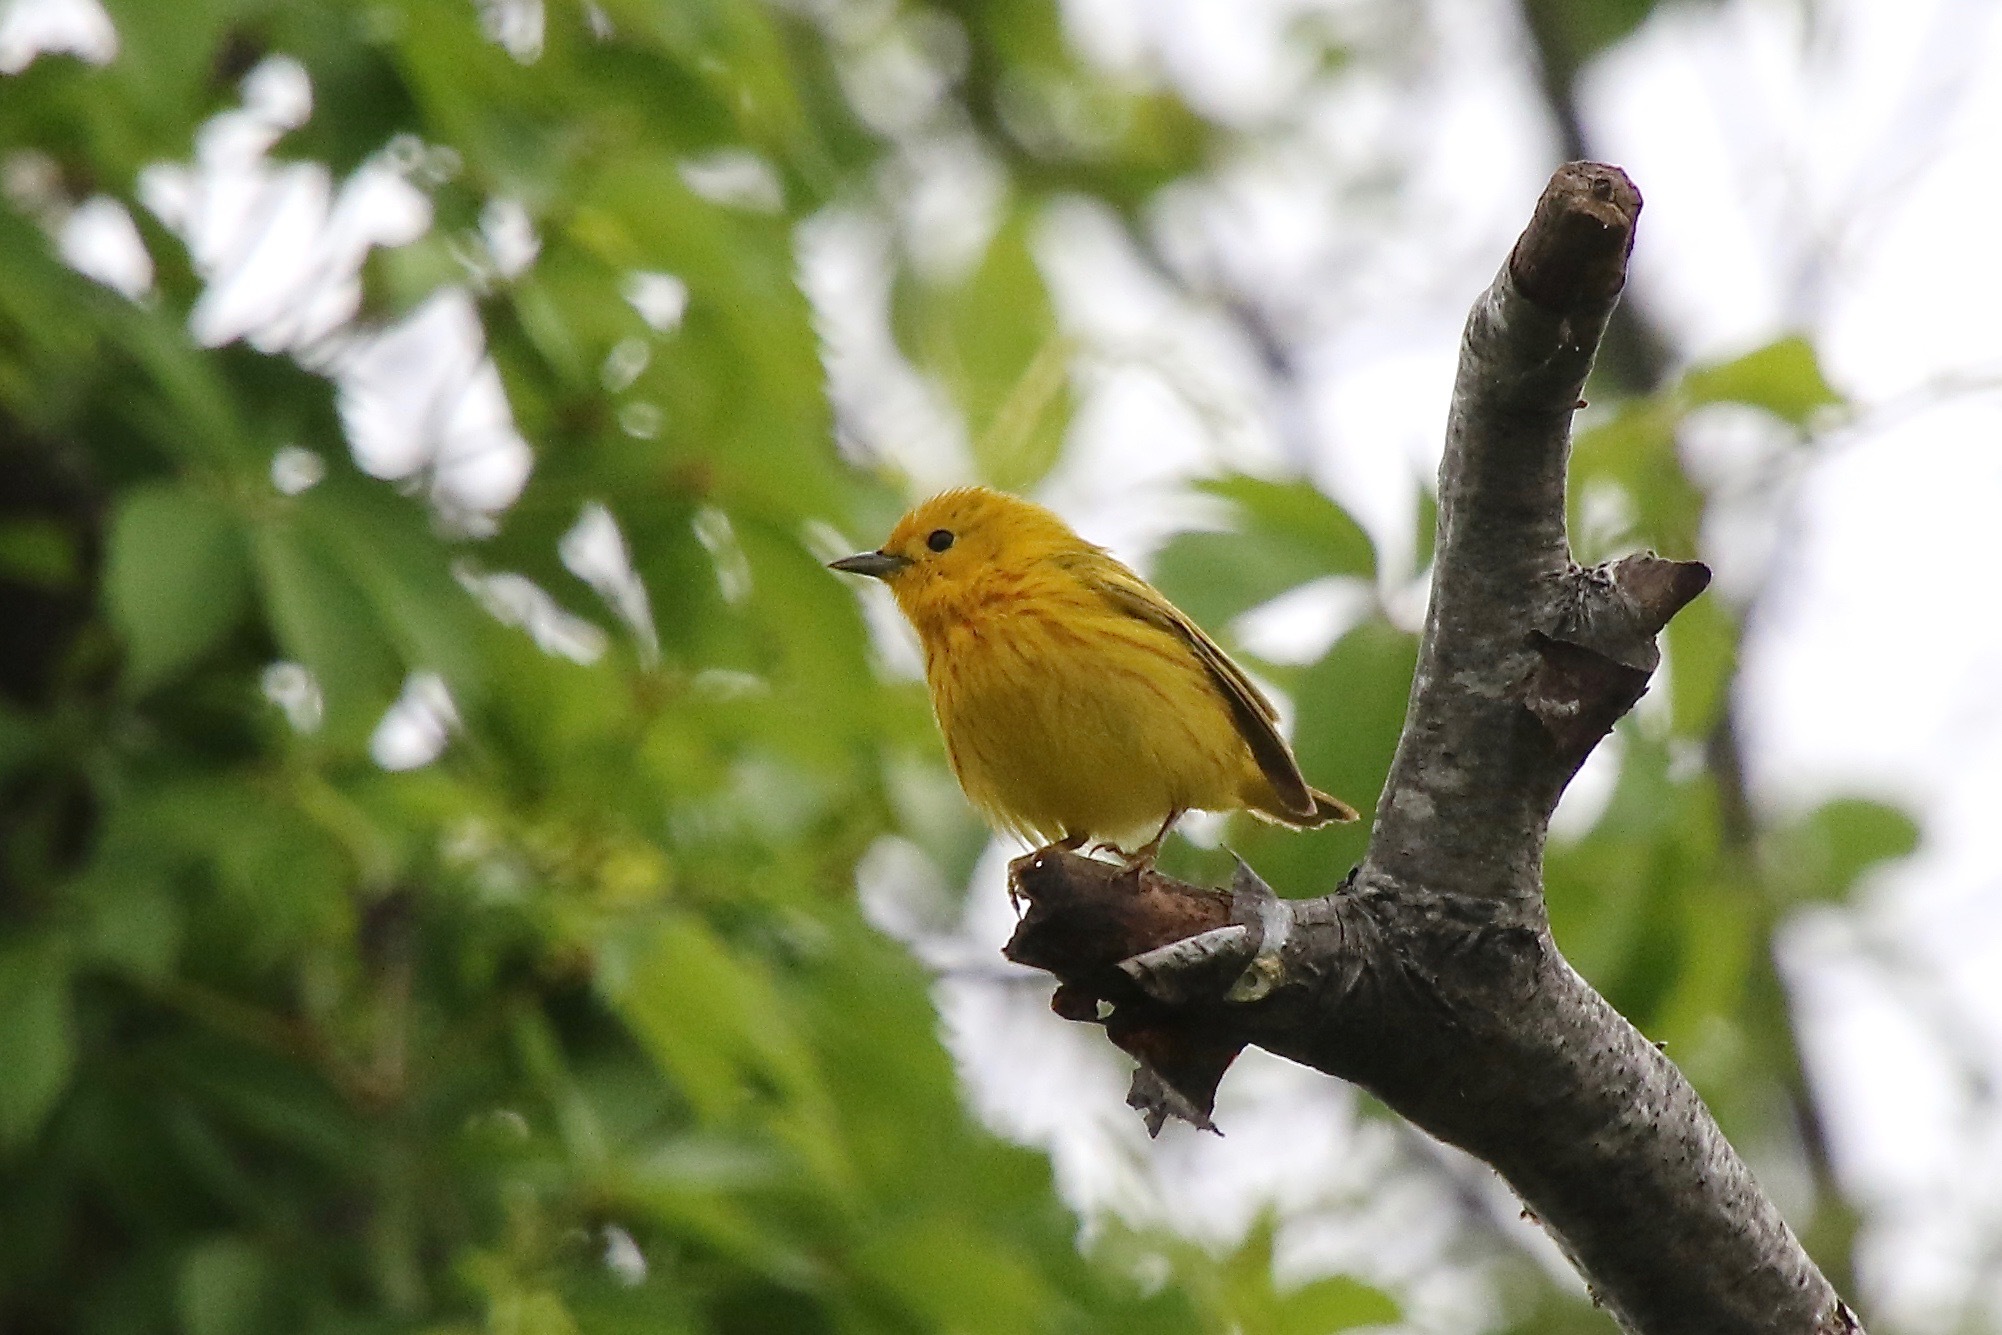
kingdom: Animalia
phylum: Chordata
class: Aves
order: Passeriformes
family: Parulidae
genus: Setophaga
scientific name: Setophaga petechia
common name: Yellow warbler
